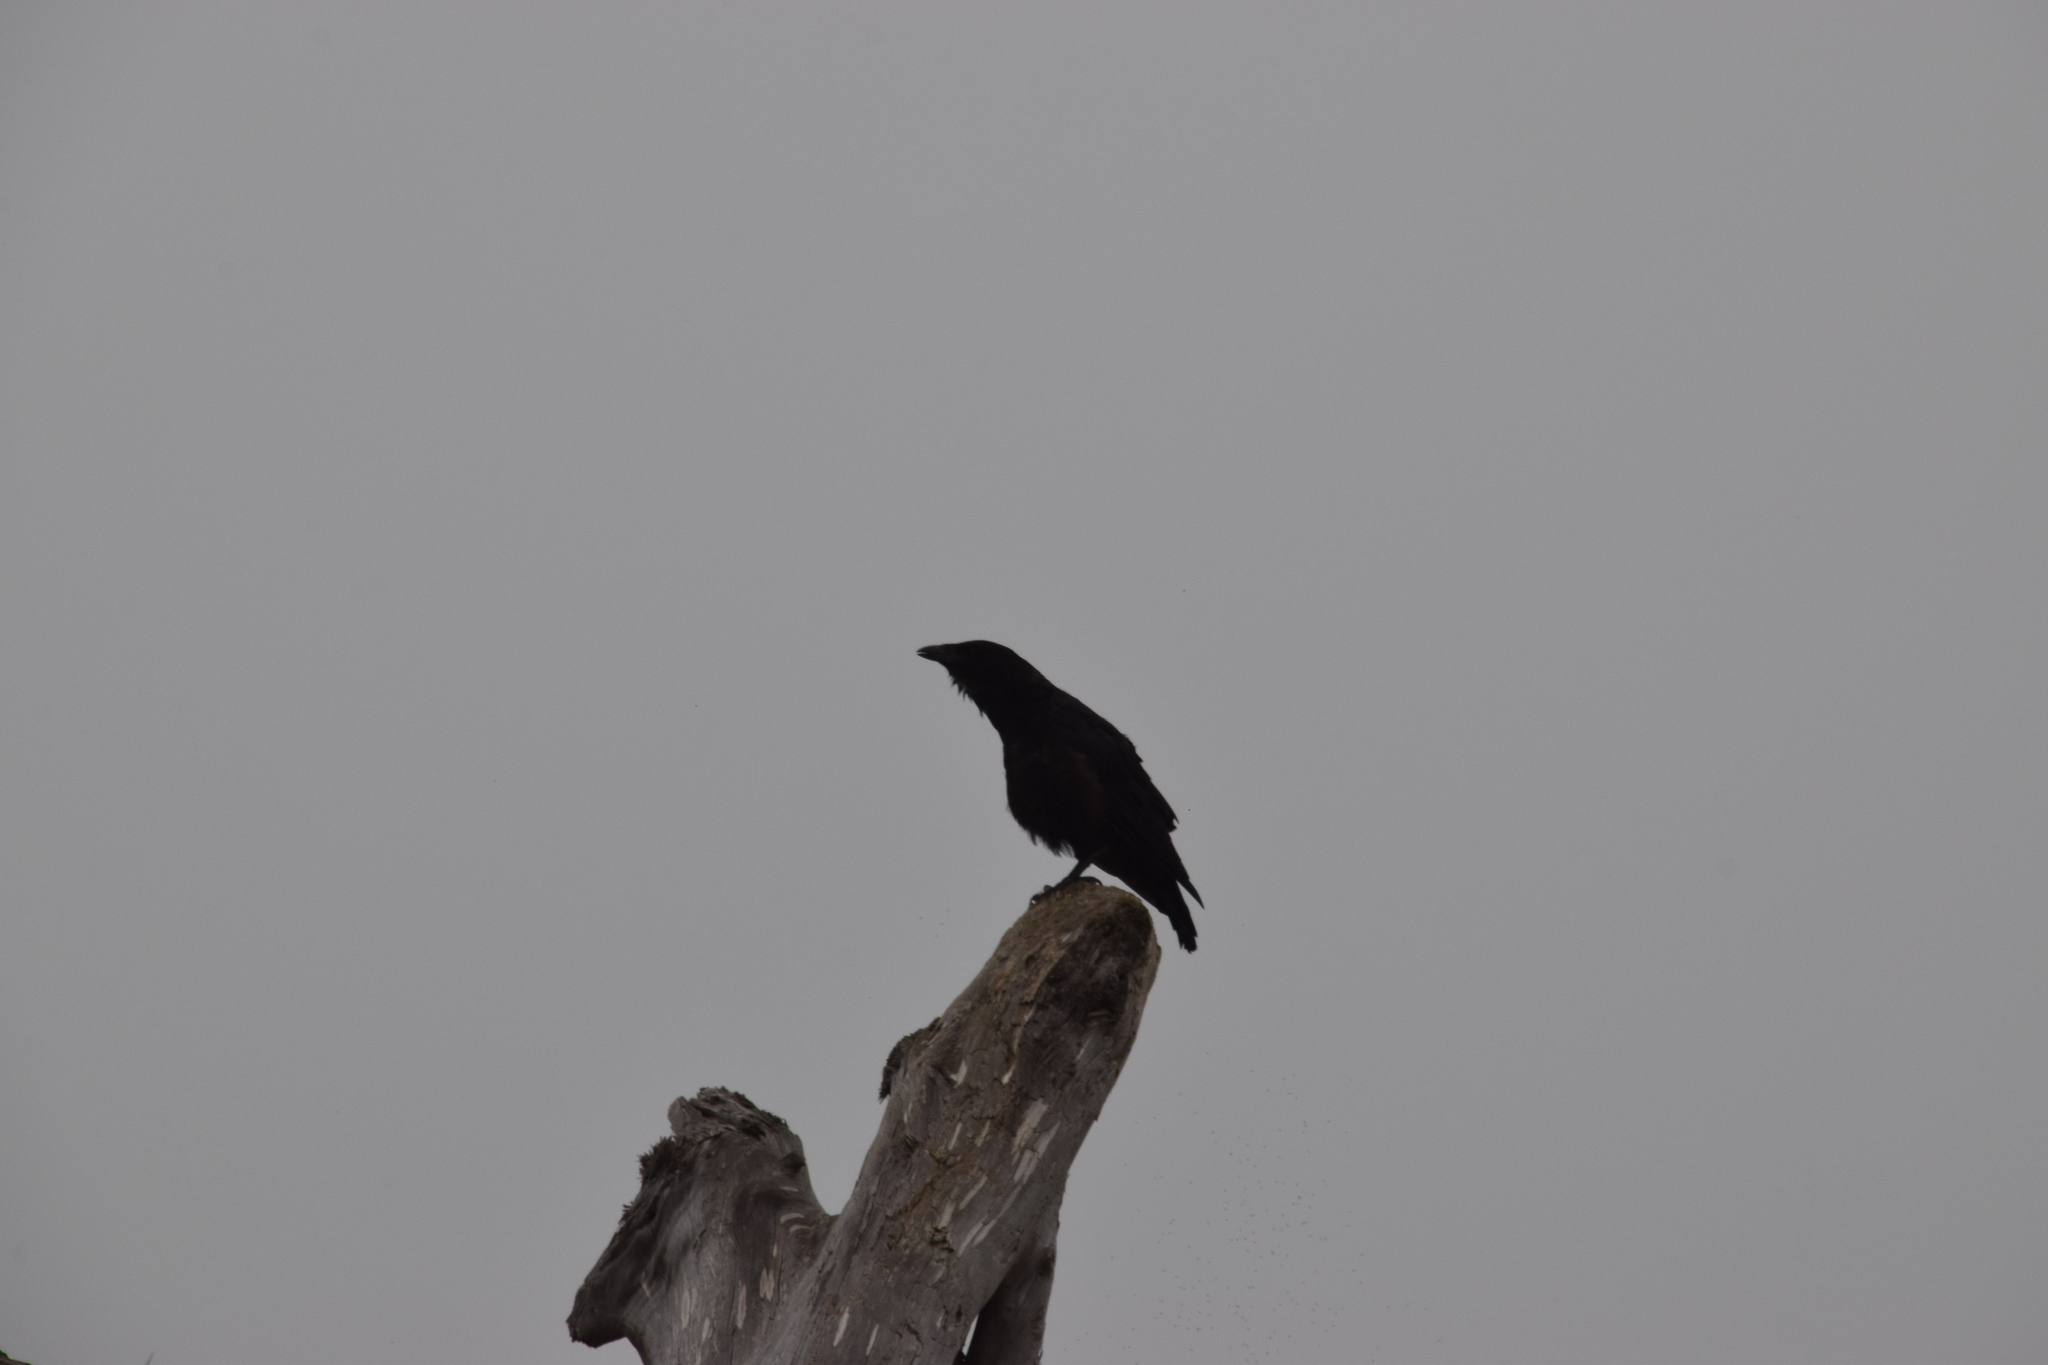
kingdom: Animalia
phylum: Chordata
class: Aves
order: Passeriformes
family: Corvidae
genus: Corvus
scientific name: Corvus brachyrhynchos
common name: American crow
